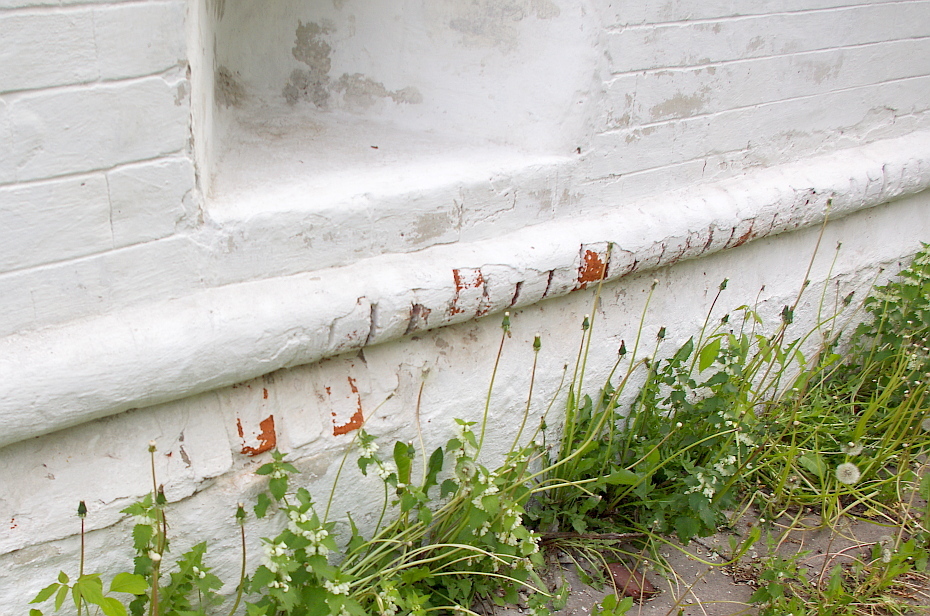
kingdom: Plantae
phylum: Tracheophyta
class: Magnoliopsida
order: Asterales
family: Asteraceae
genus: Taraxacum
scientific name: Taraxacum officinale
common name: Common dandelion
